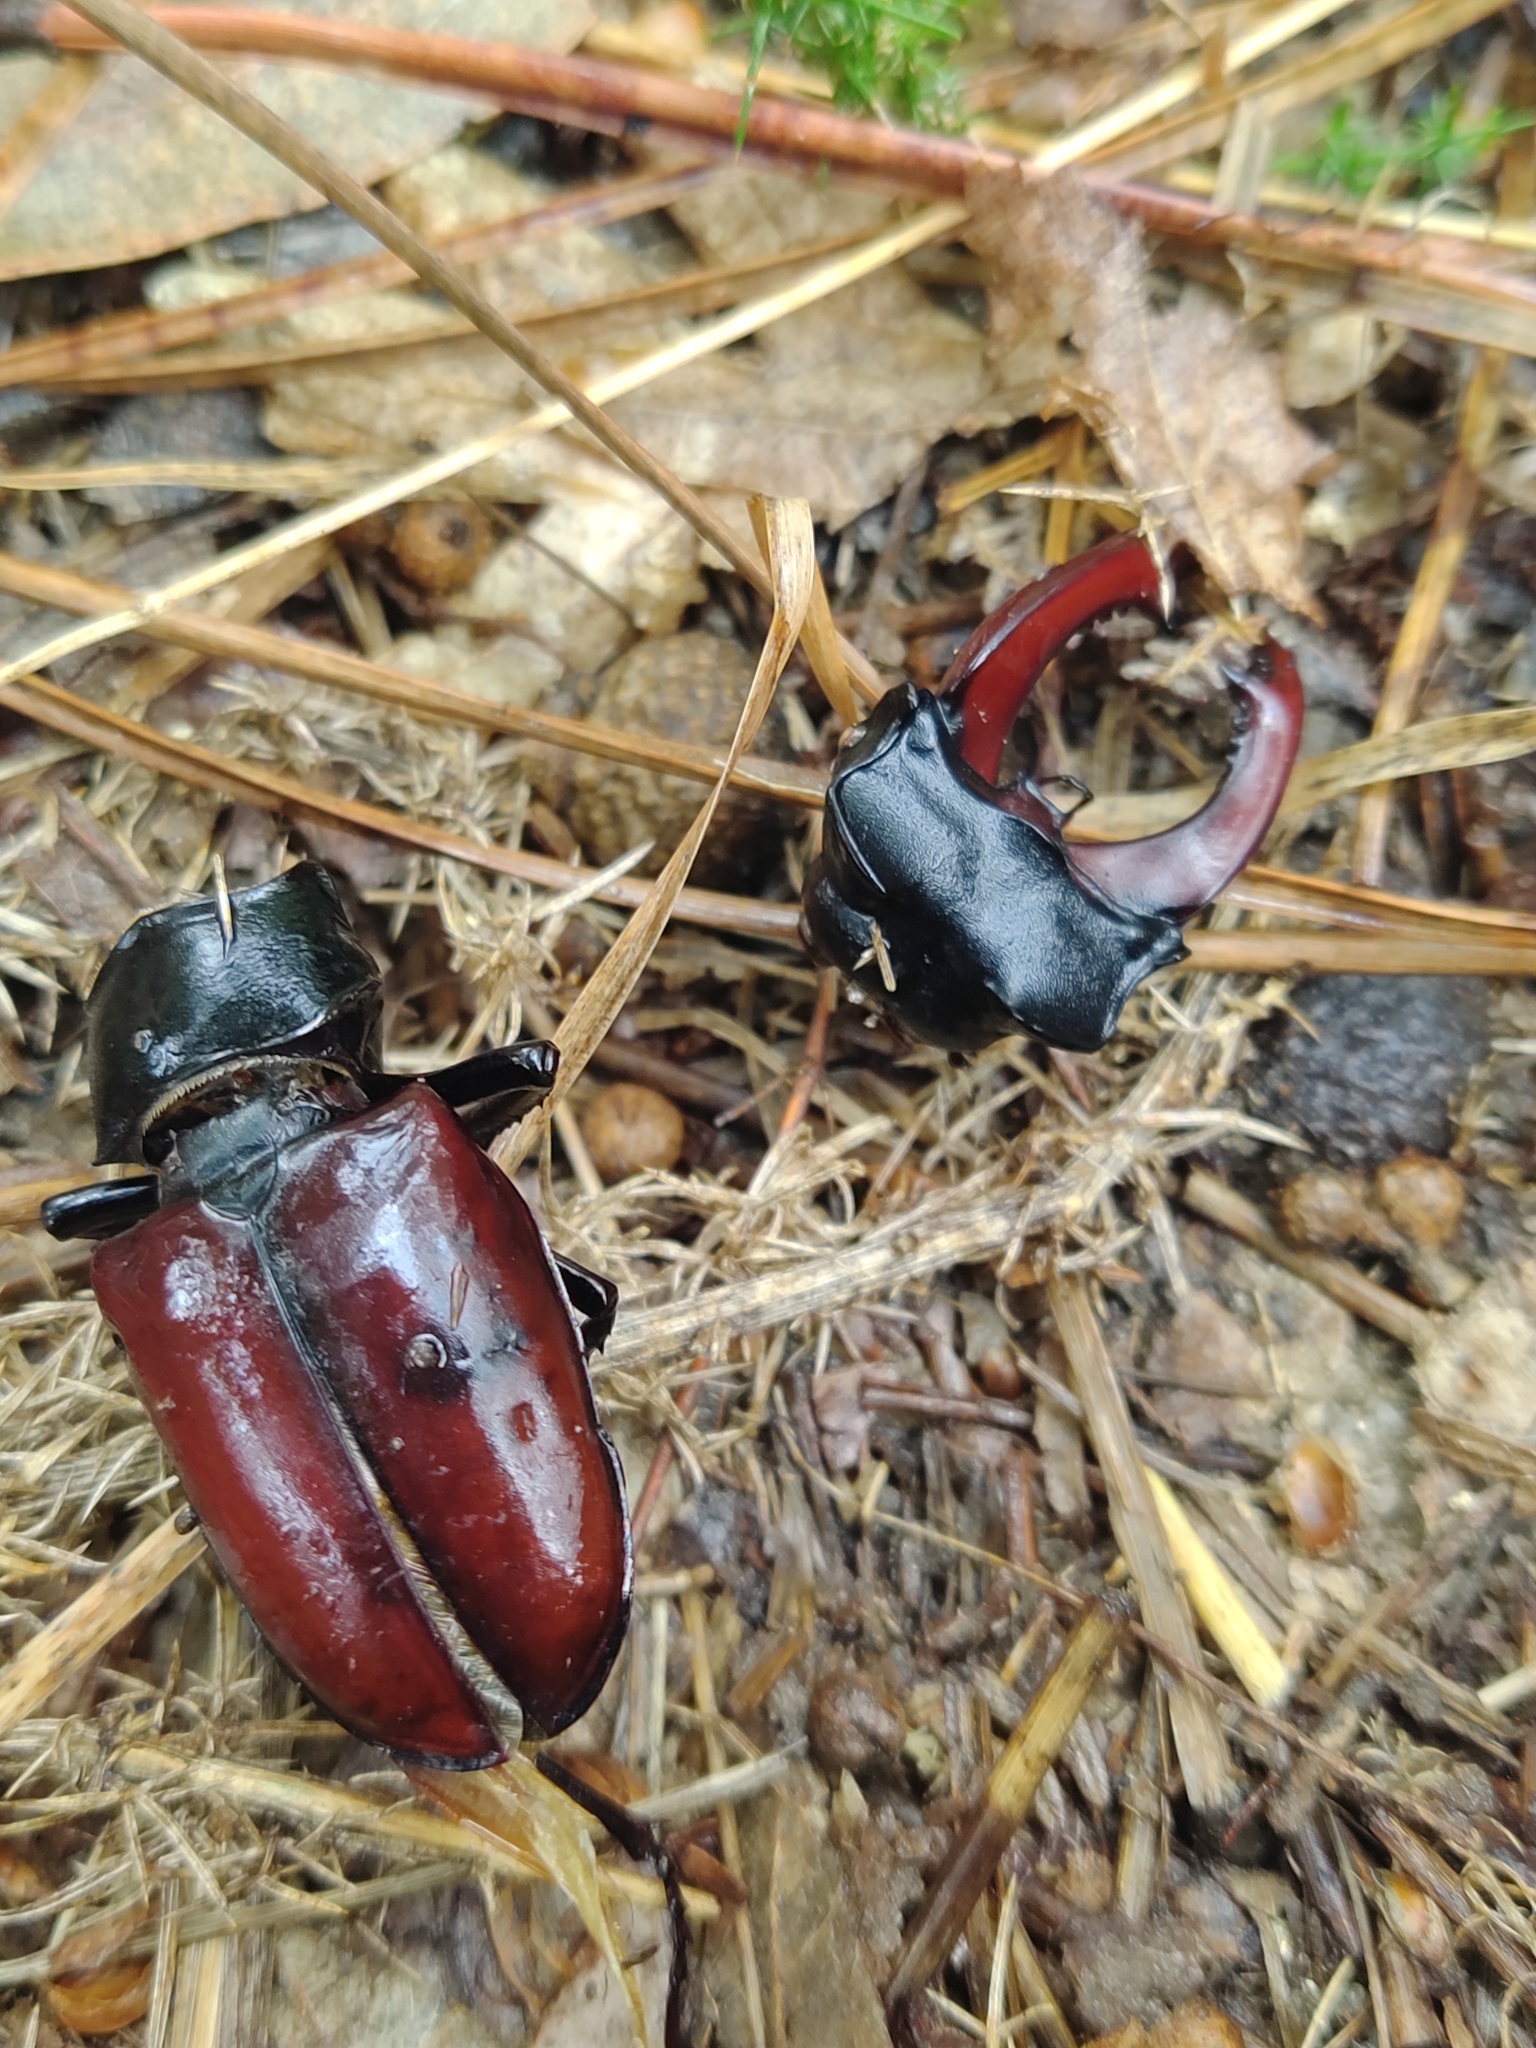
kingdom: Animalia
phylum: Arthropoda
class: Insecta
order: Coleoptera
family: Lucanidae
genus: Lucanus
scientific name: Lucanus cervus
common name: Stag beetle
